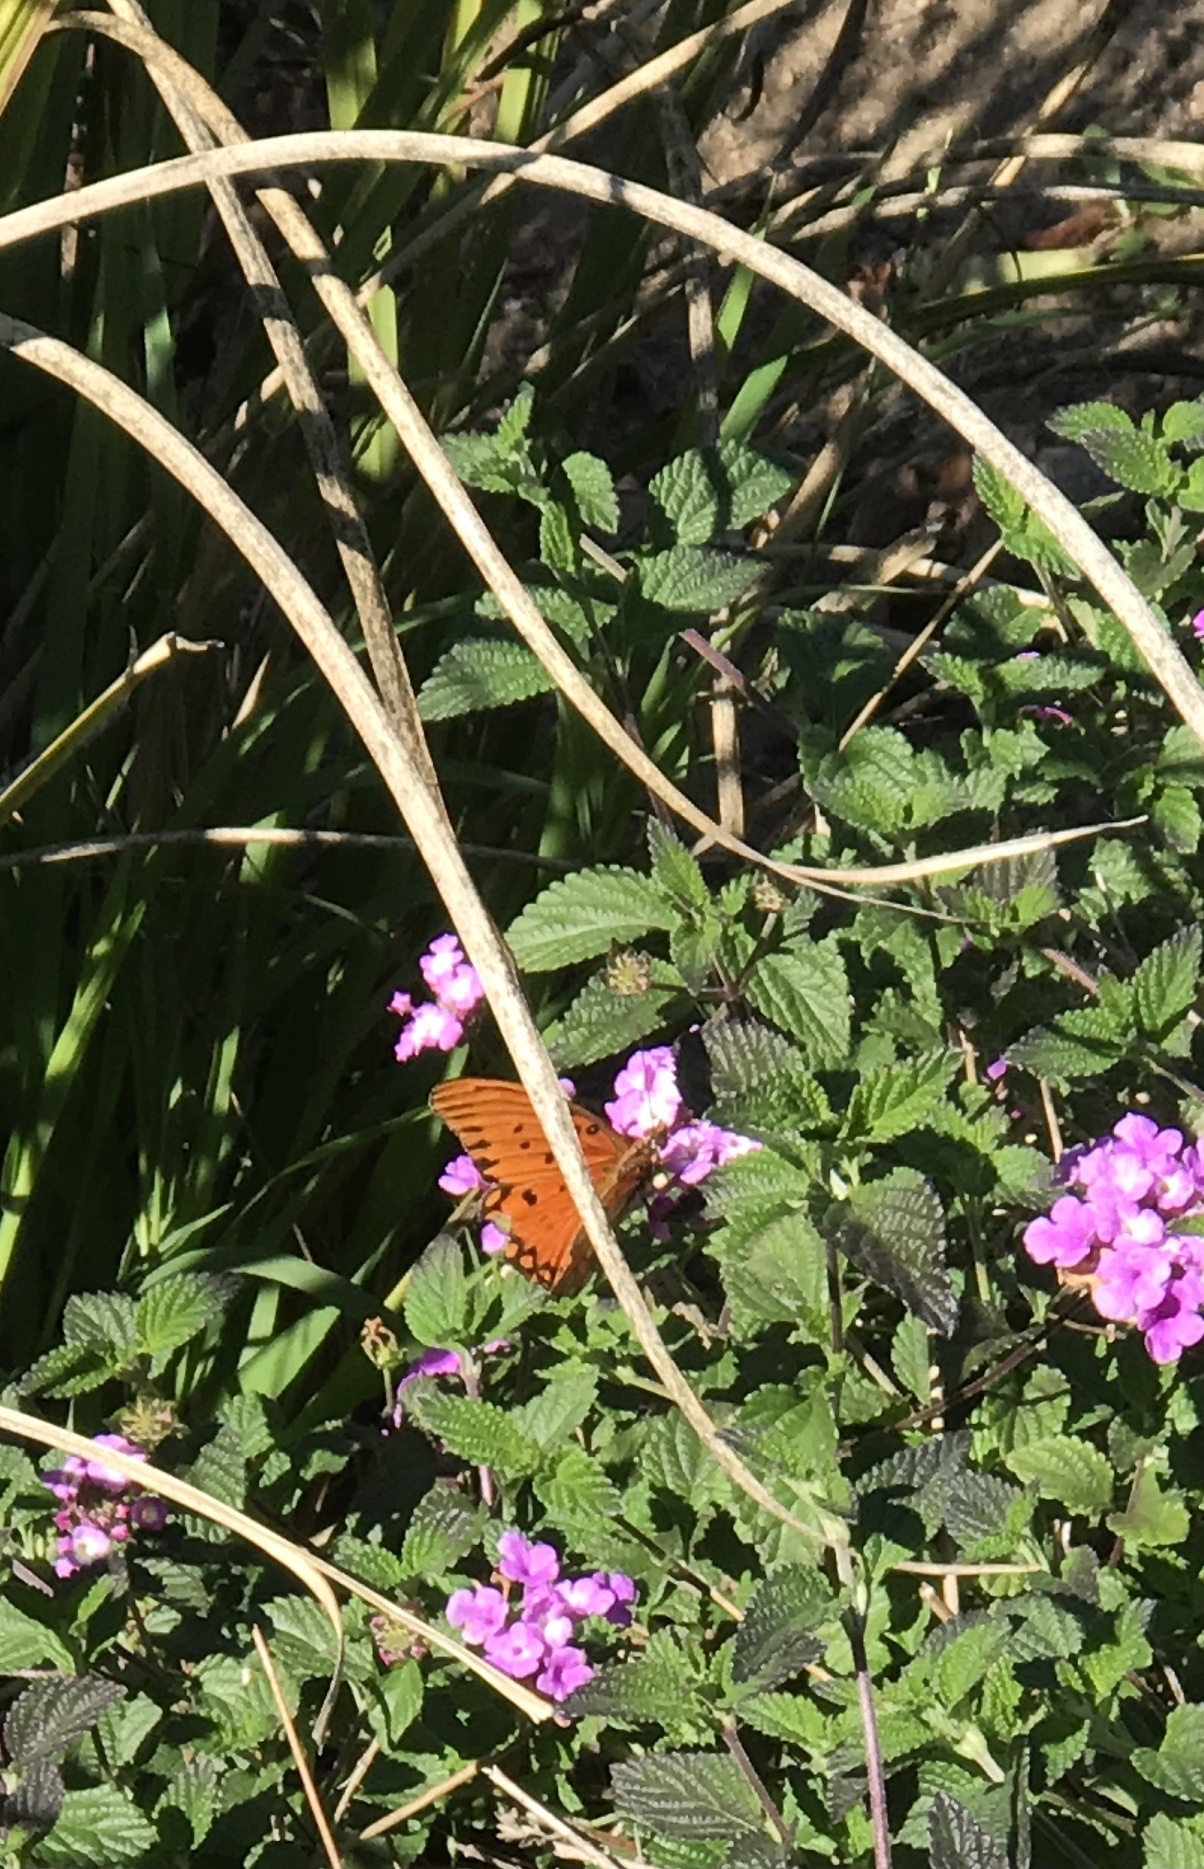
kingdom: Animalia
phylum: Arthropoda
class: Insecta
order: Lepidoptera
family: Nymphalidae
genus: Dione
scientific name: Dione vanillae
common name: Gulf fritillary
